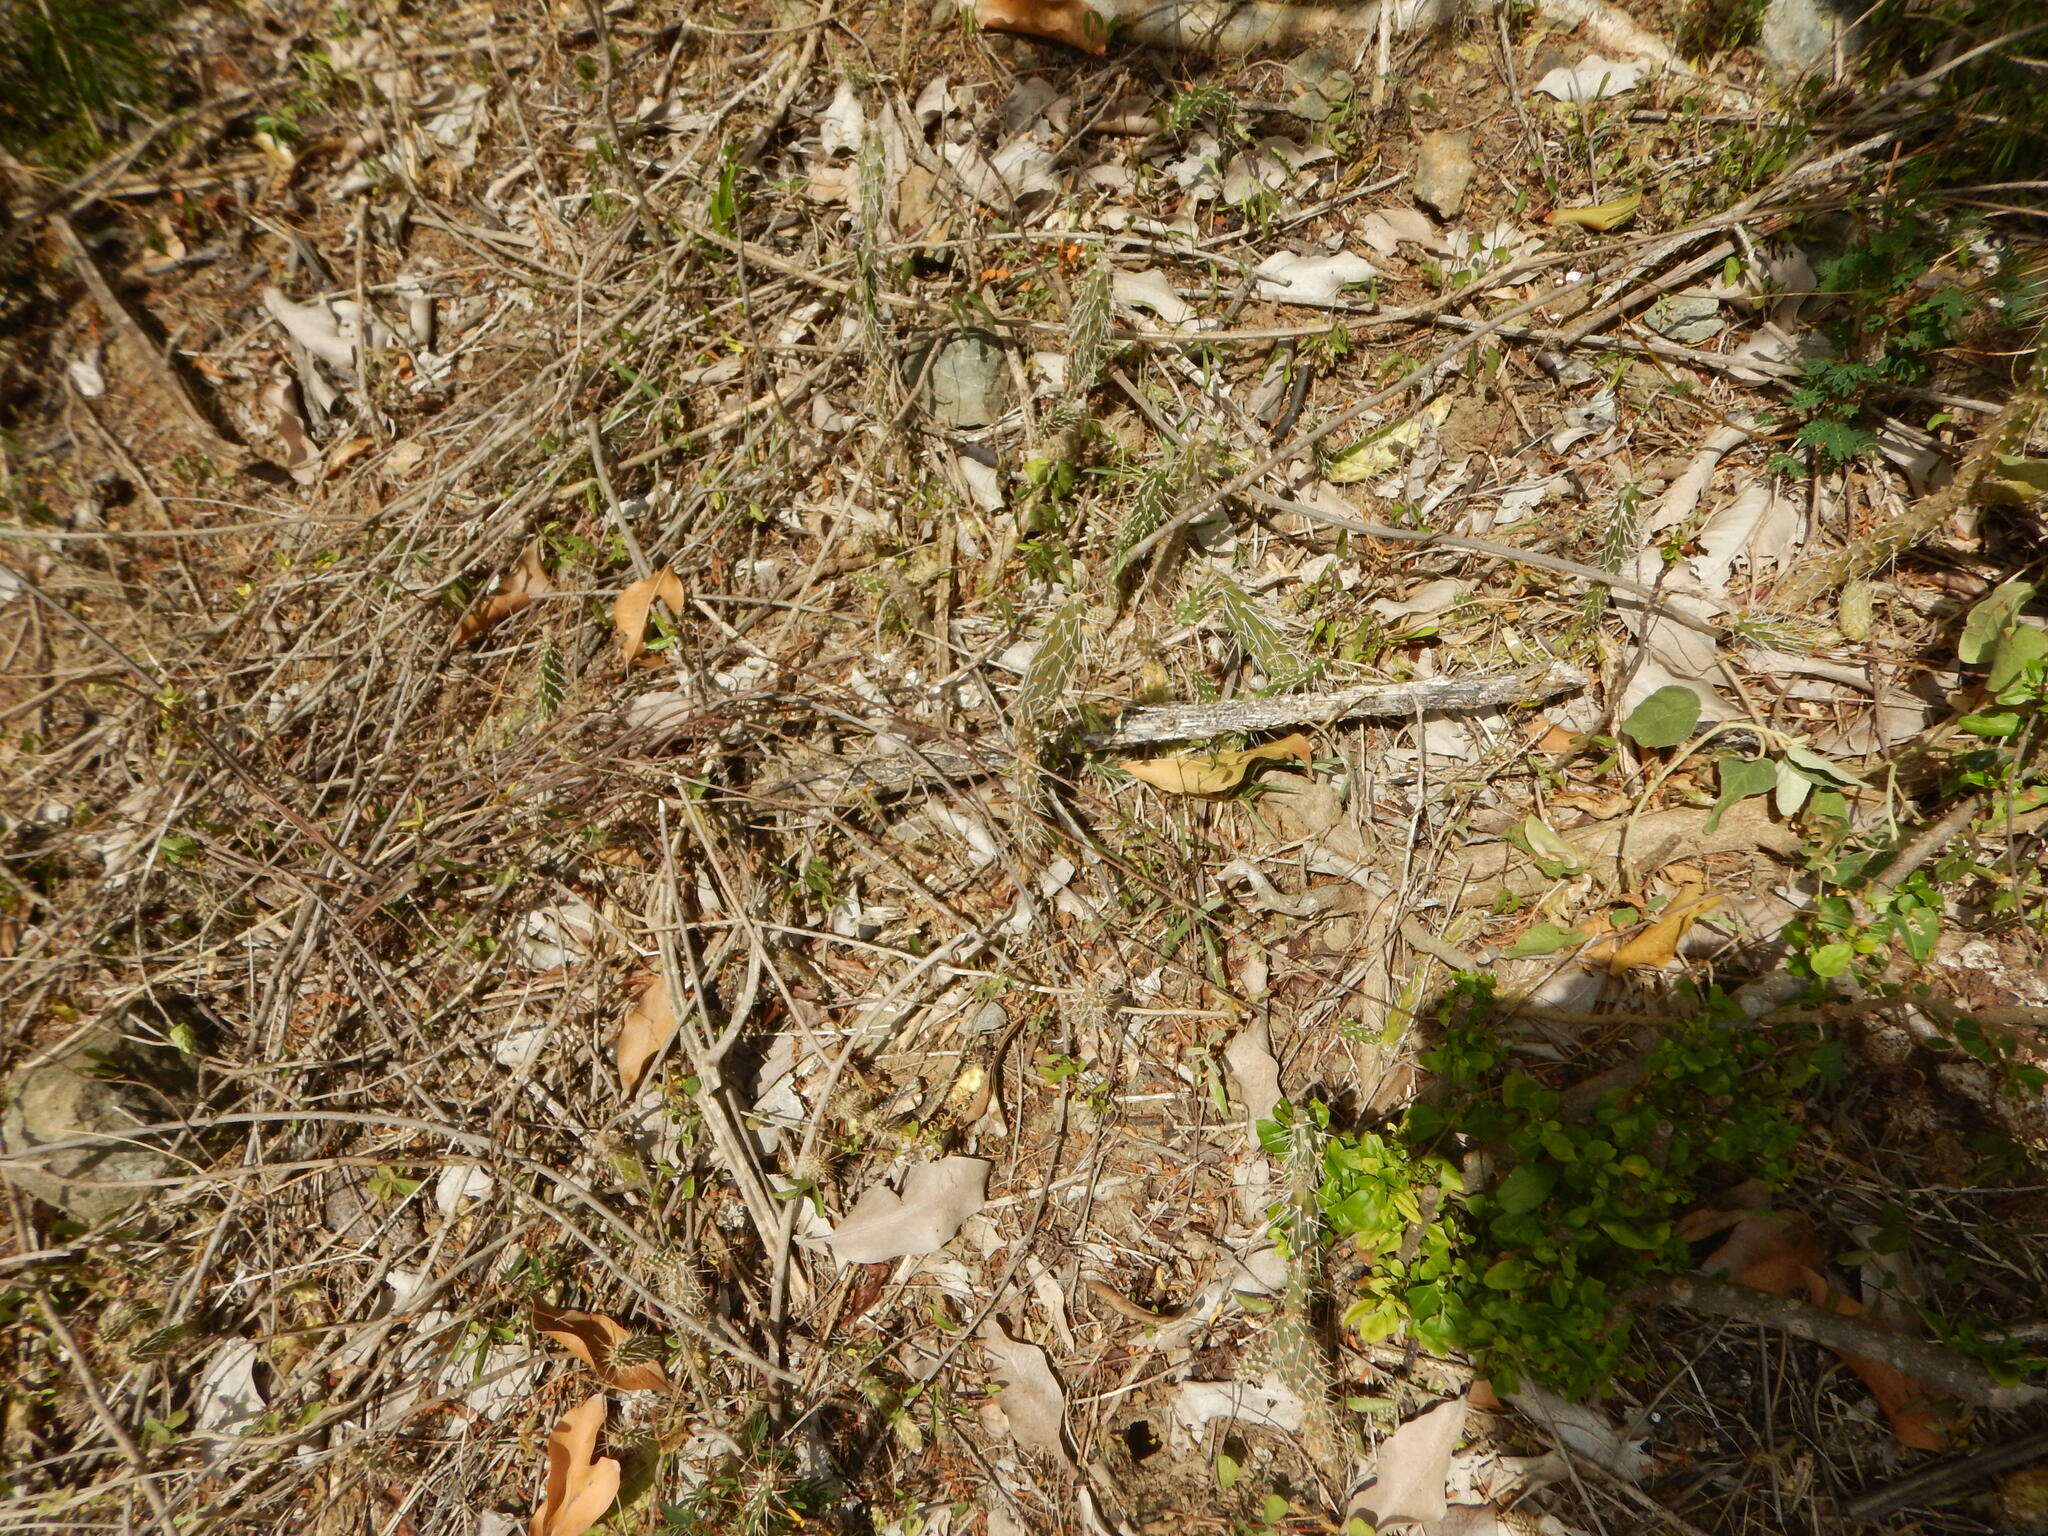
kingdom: Plantae
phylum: Tracheophyta
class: Magnoliopsida
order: Caryophyllales
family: Cactaceae
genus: Opuntia
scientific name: Opuntia repens
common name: Roving pricklypear
